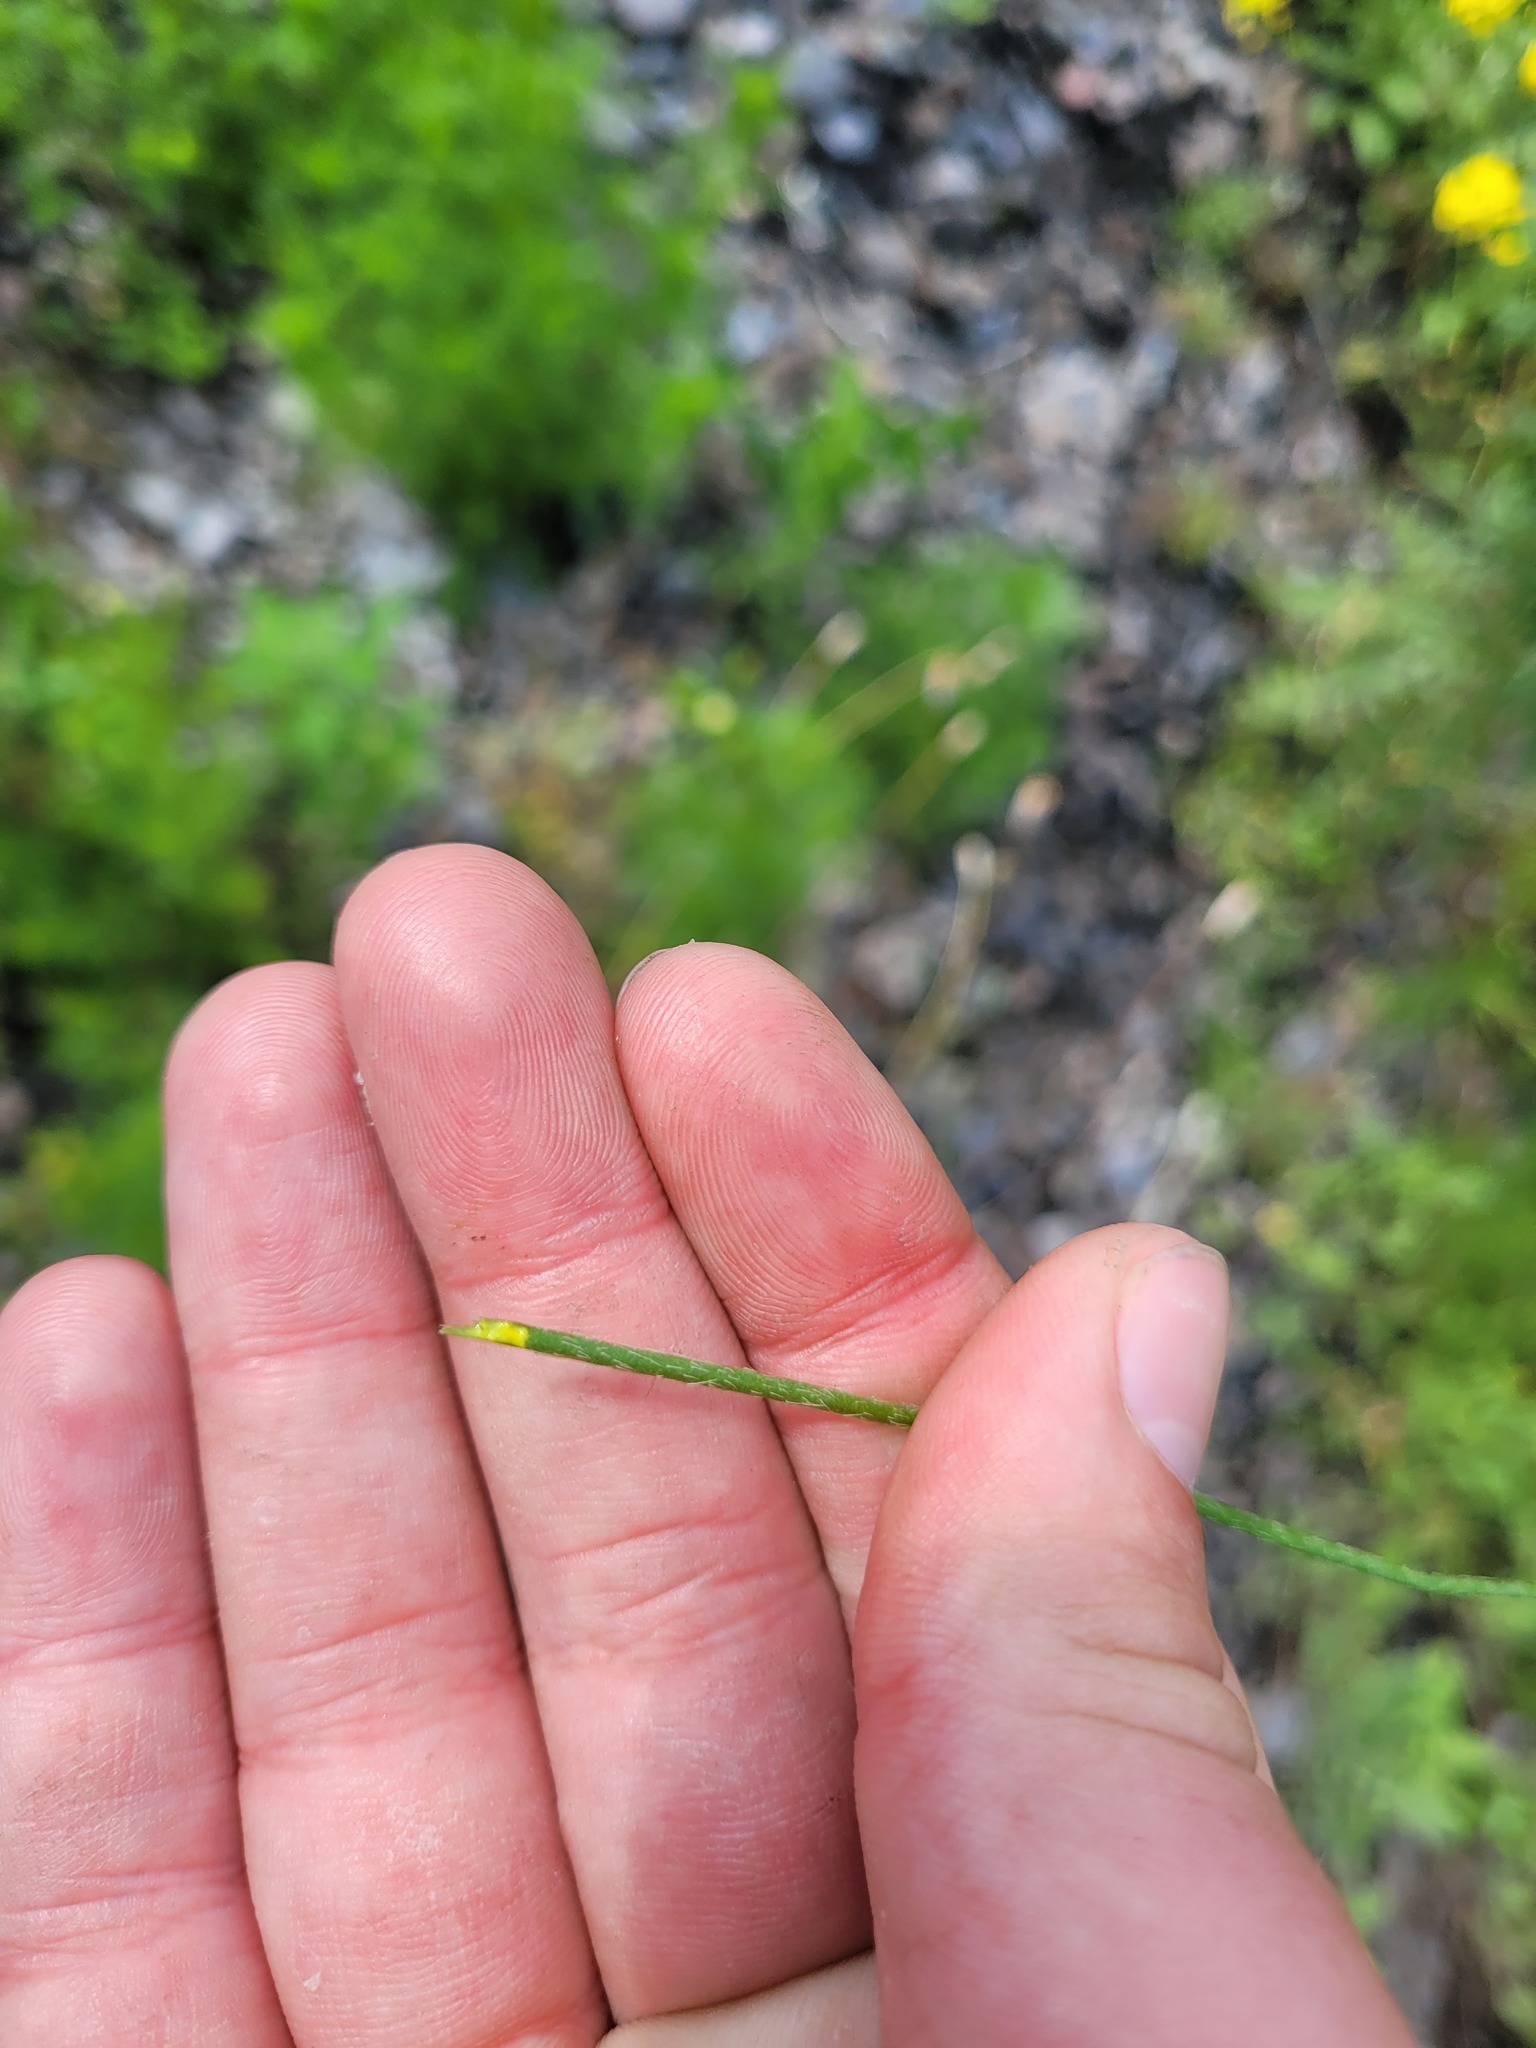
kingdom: Plantae
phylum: Tracheophyta
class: Magnoliopsida
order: Ranunculales
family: Papaveraceae
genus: Papaver
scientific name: Papaver dubium
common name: Long-headed poppy
